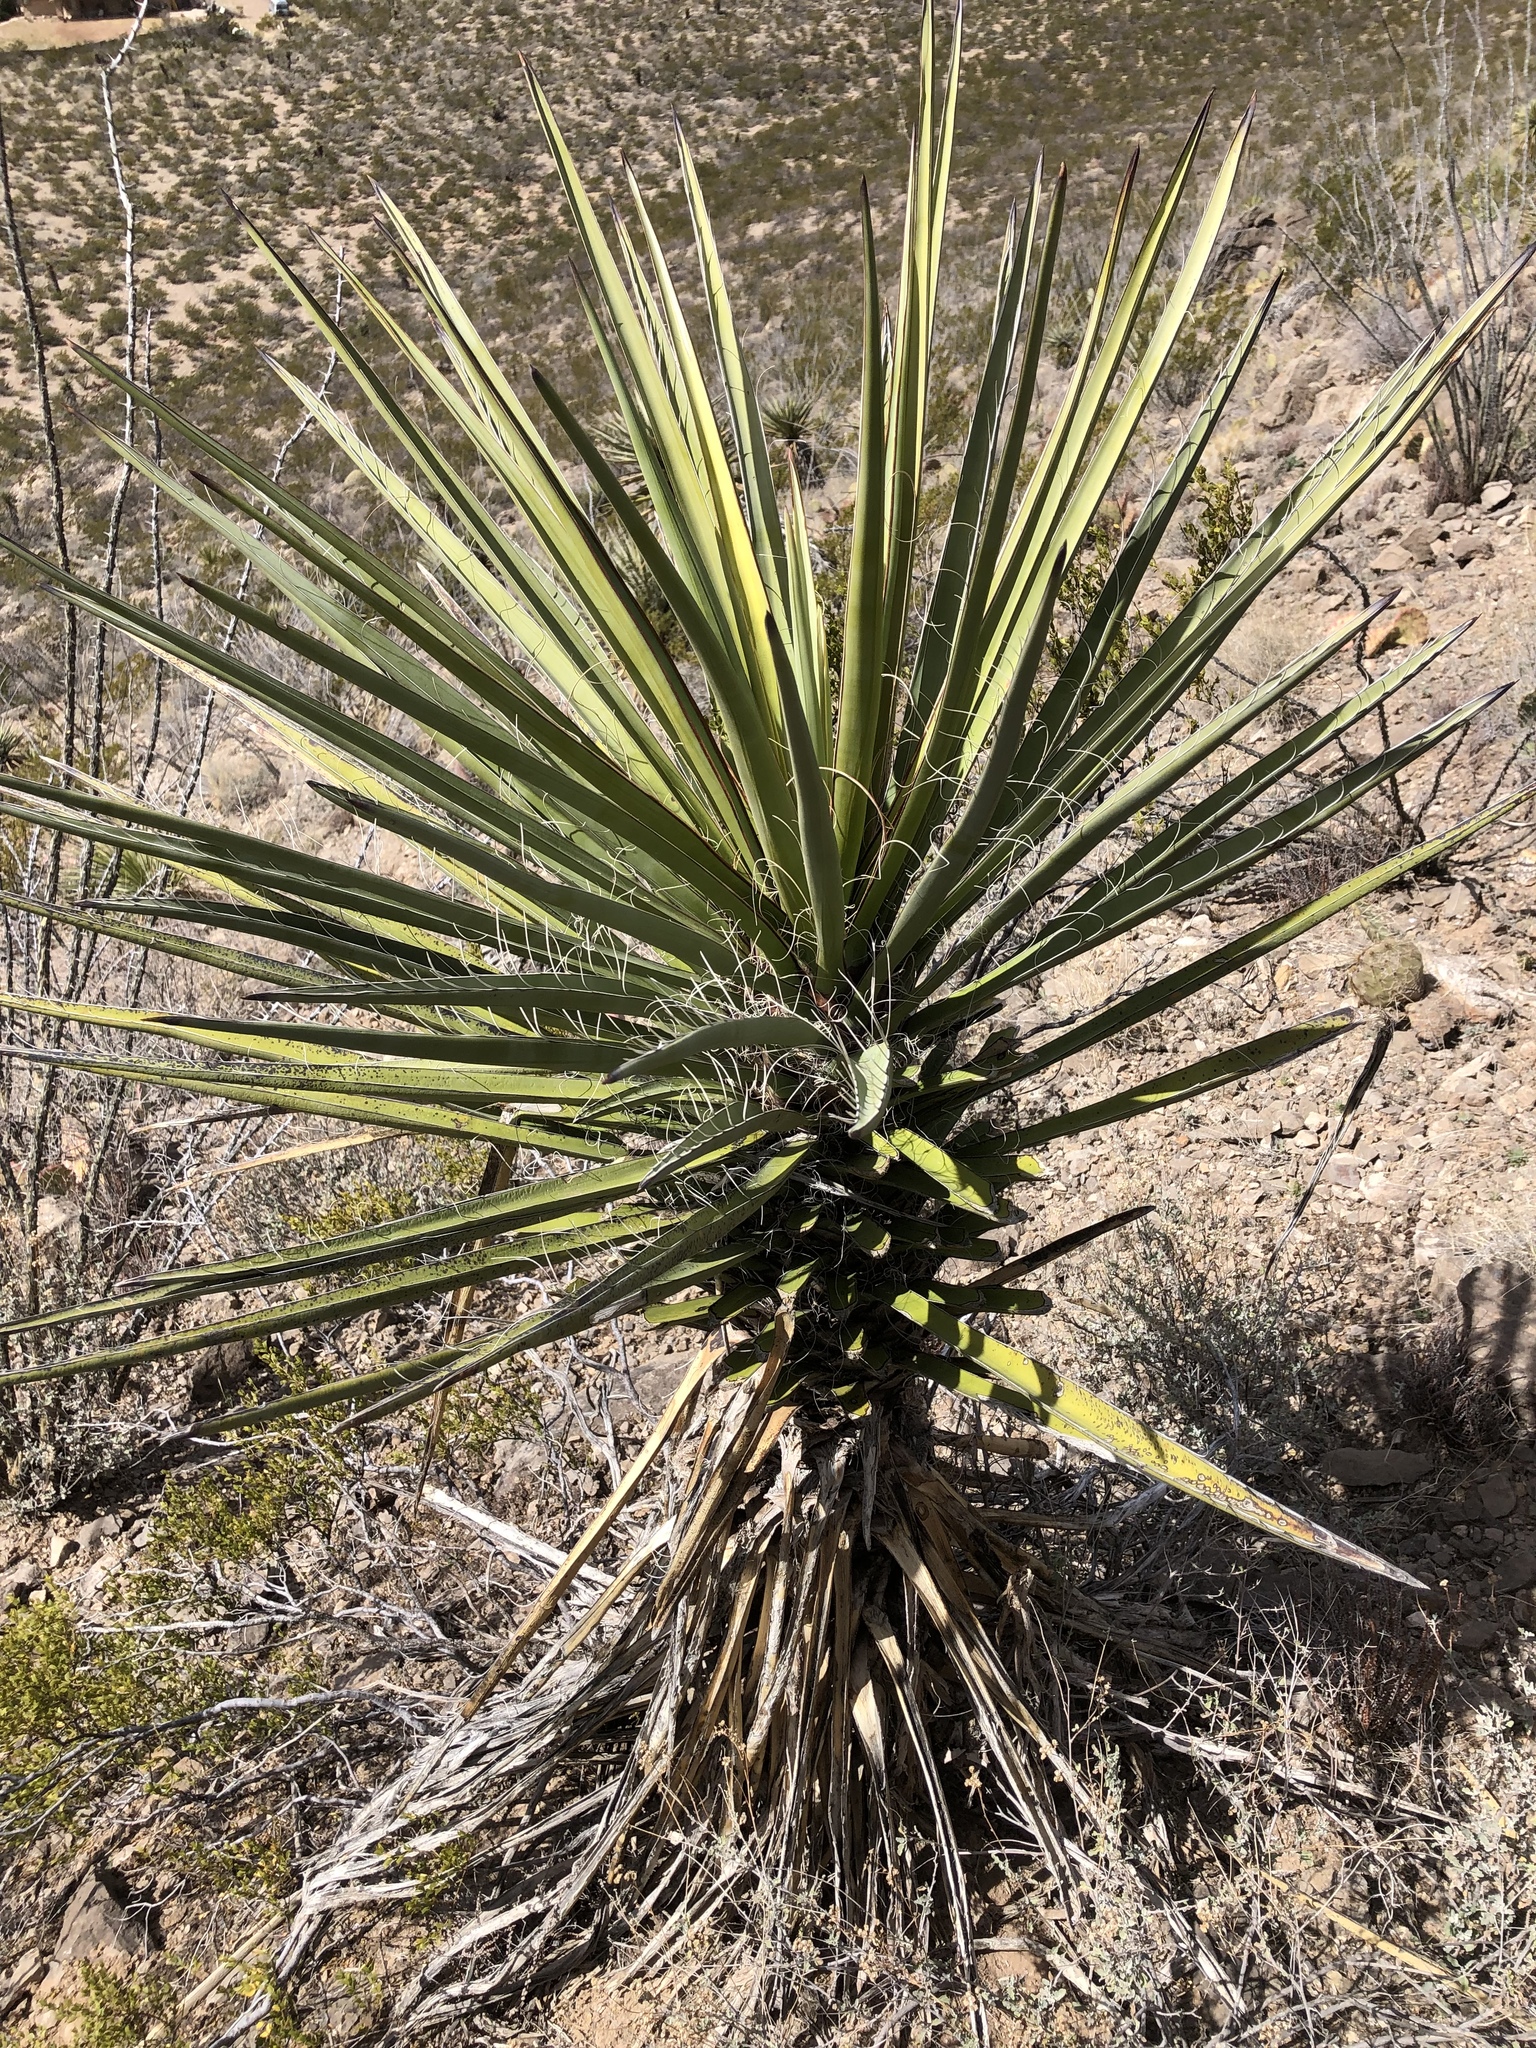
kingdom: Plantae
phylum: Tracheophyta
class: Liliopsida
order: Asparagales
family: Asparagaceae
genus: Yucca
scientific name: Yucca treculiana
